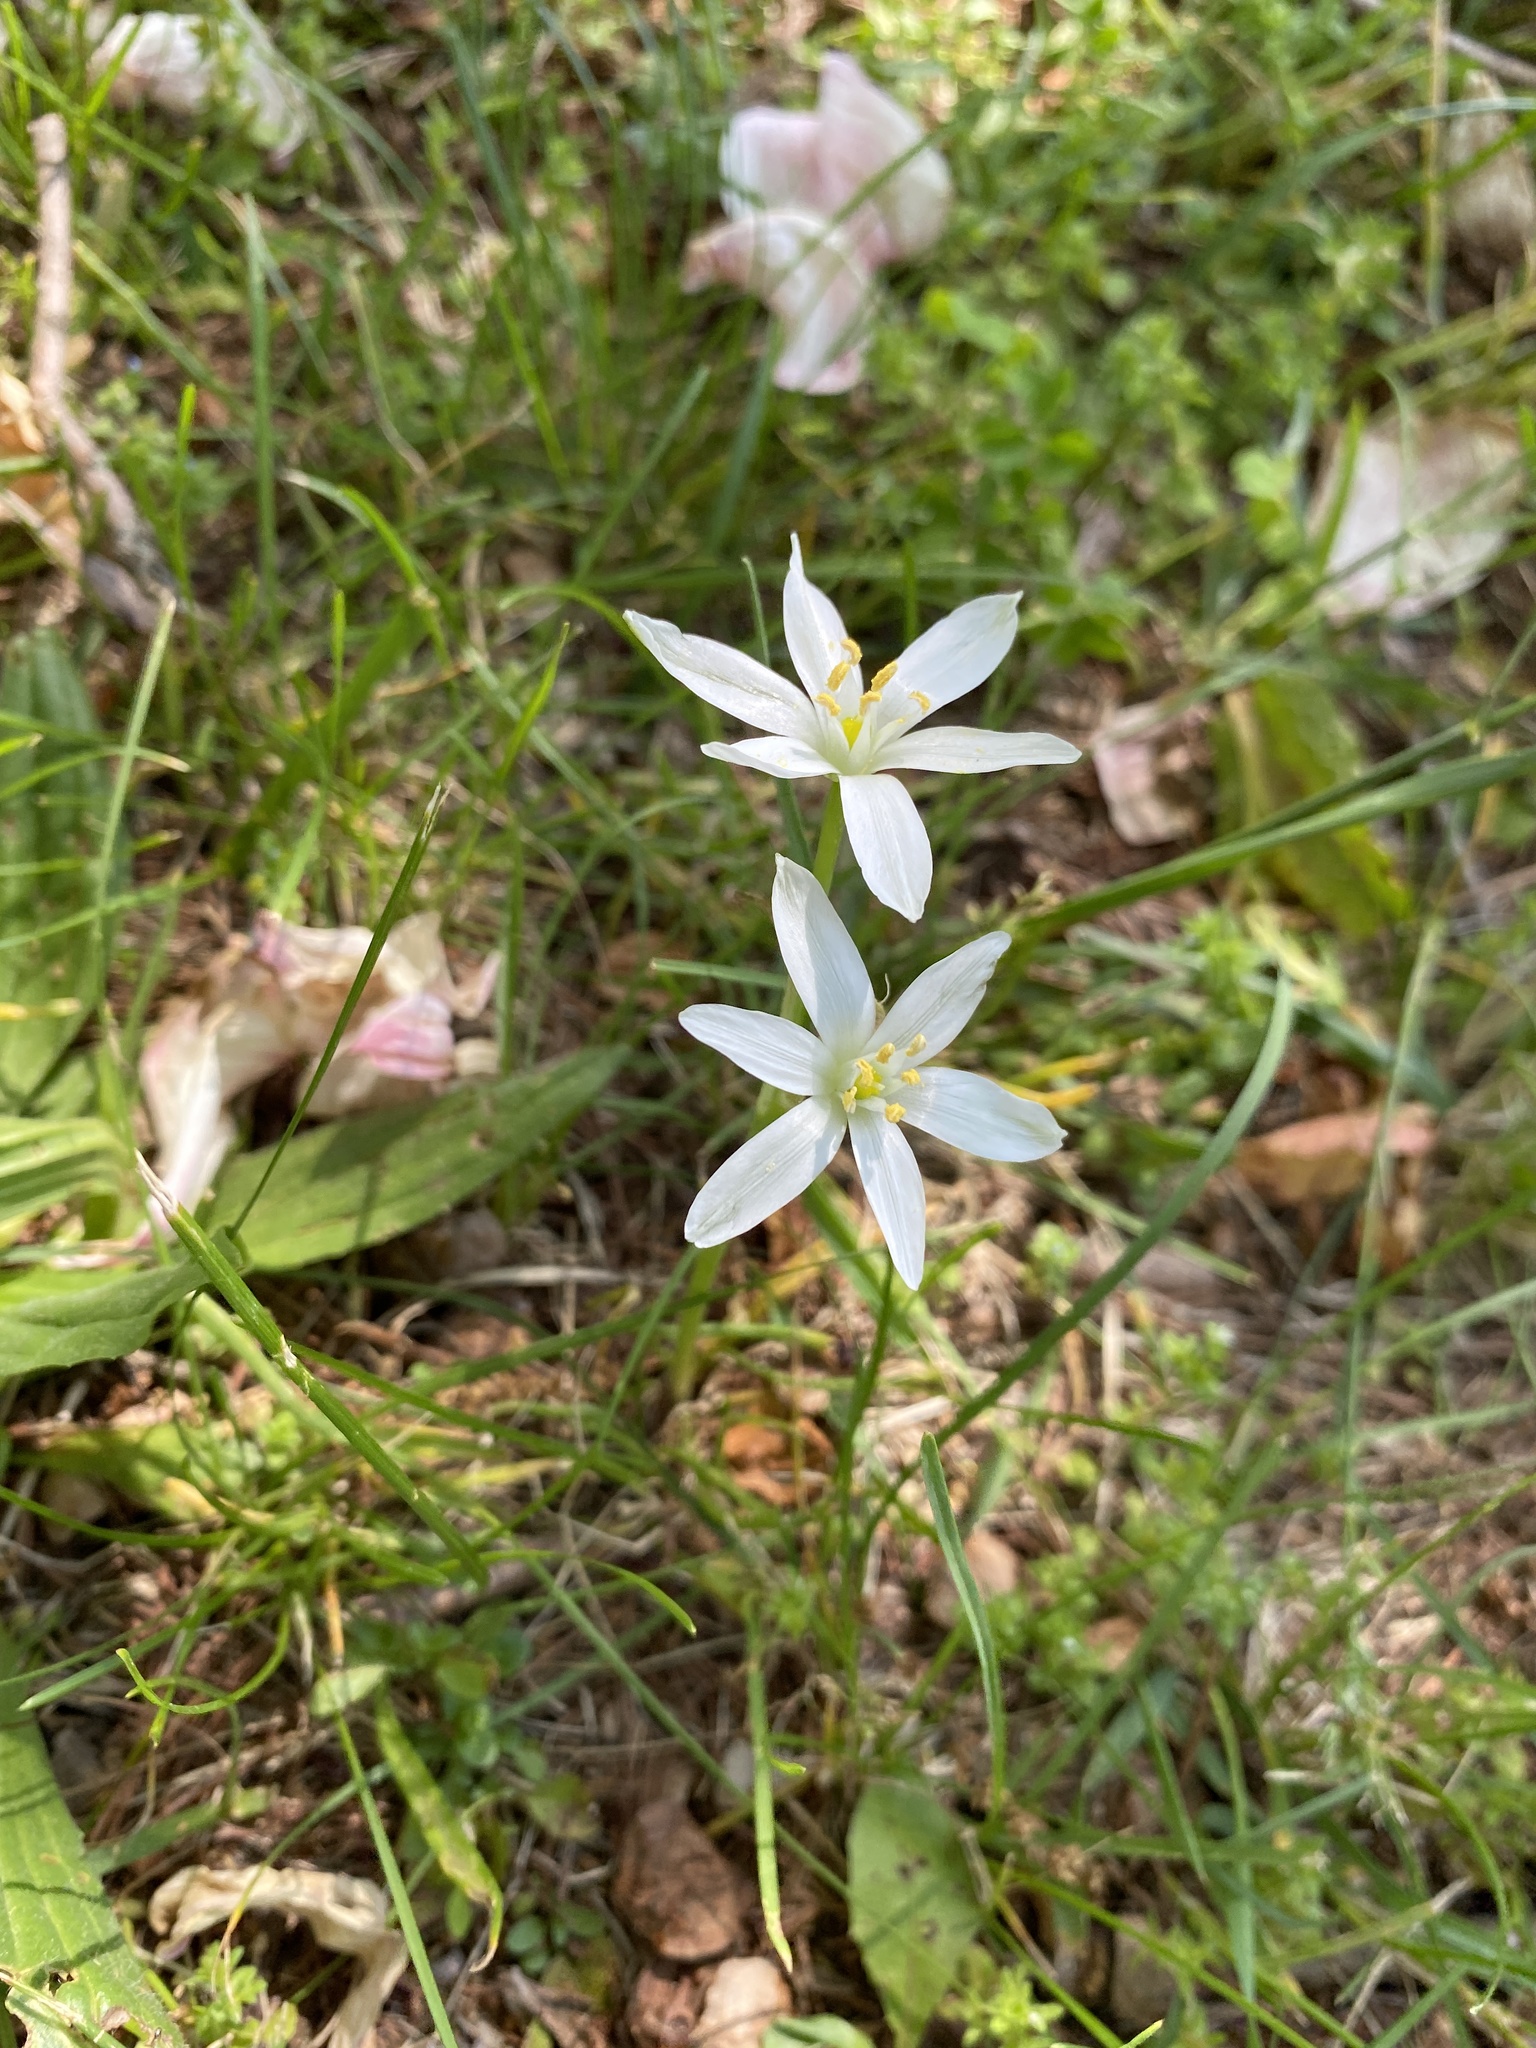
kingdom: Plantae
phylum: Tracheophyta
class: Liliopsida
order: Asparagales
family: Asparagaceae
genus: Ornithogalum
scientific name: Ornithogalum umbellatum
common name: Garden star-of-bethlehem
